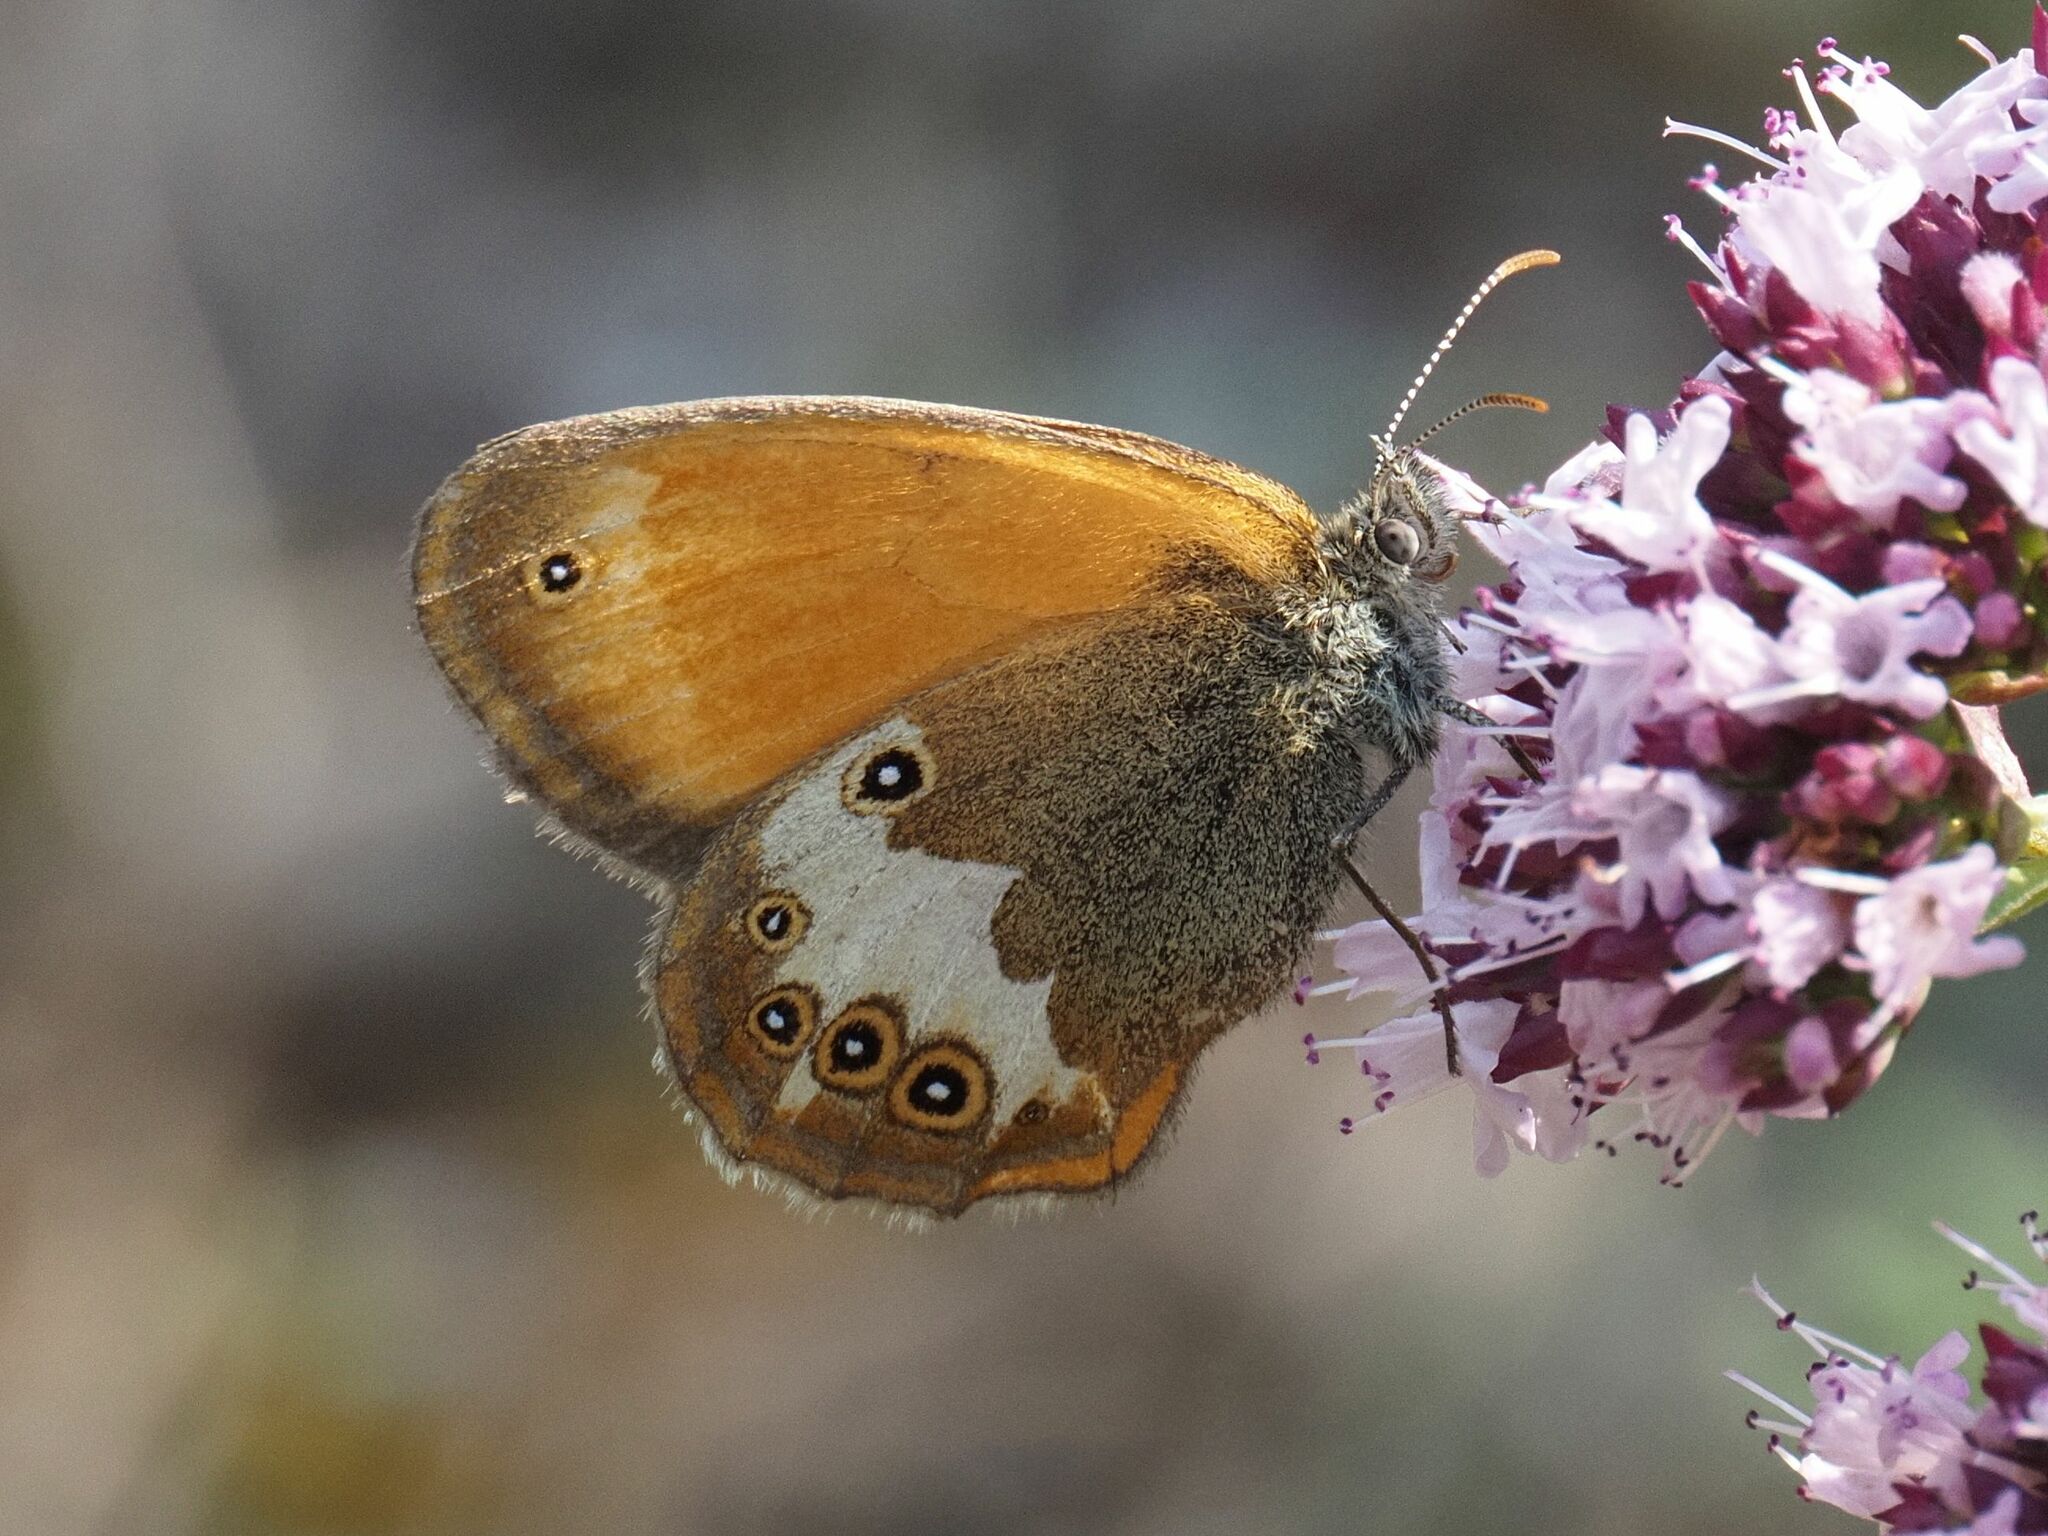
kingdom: Animalia
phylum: Arthropoda
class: Insecta
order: Lepidoptera
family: Nymphalidae
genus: Coenonympha
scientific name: Coenonympha arcania
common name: Pearly heath
